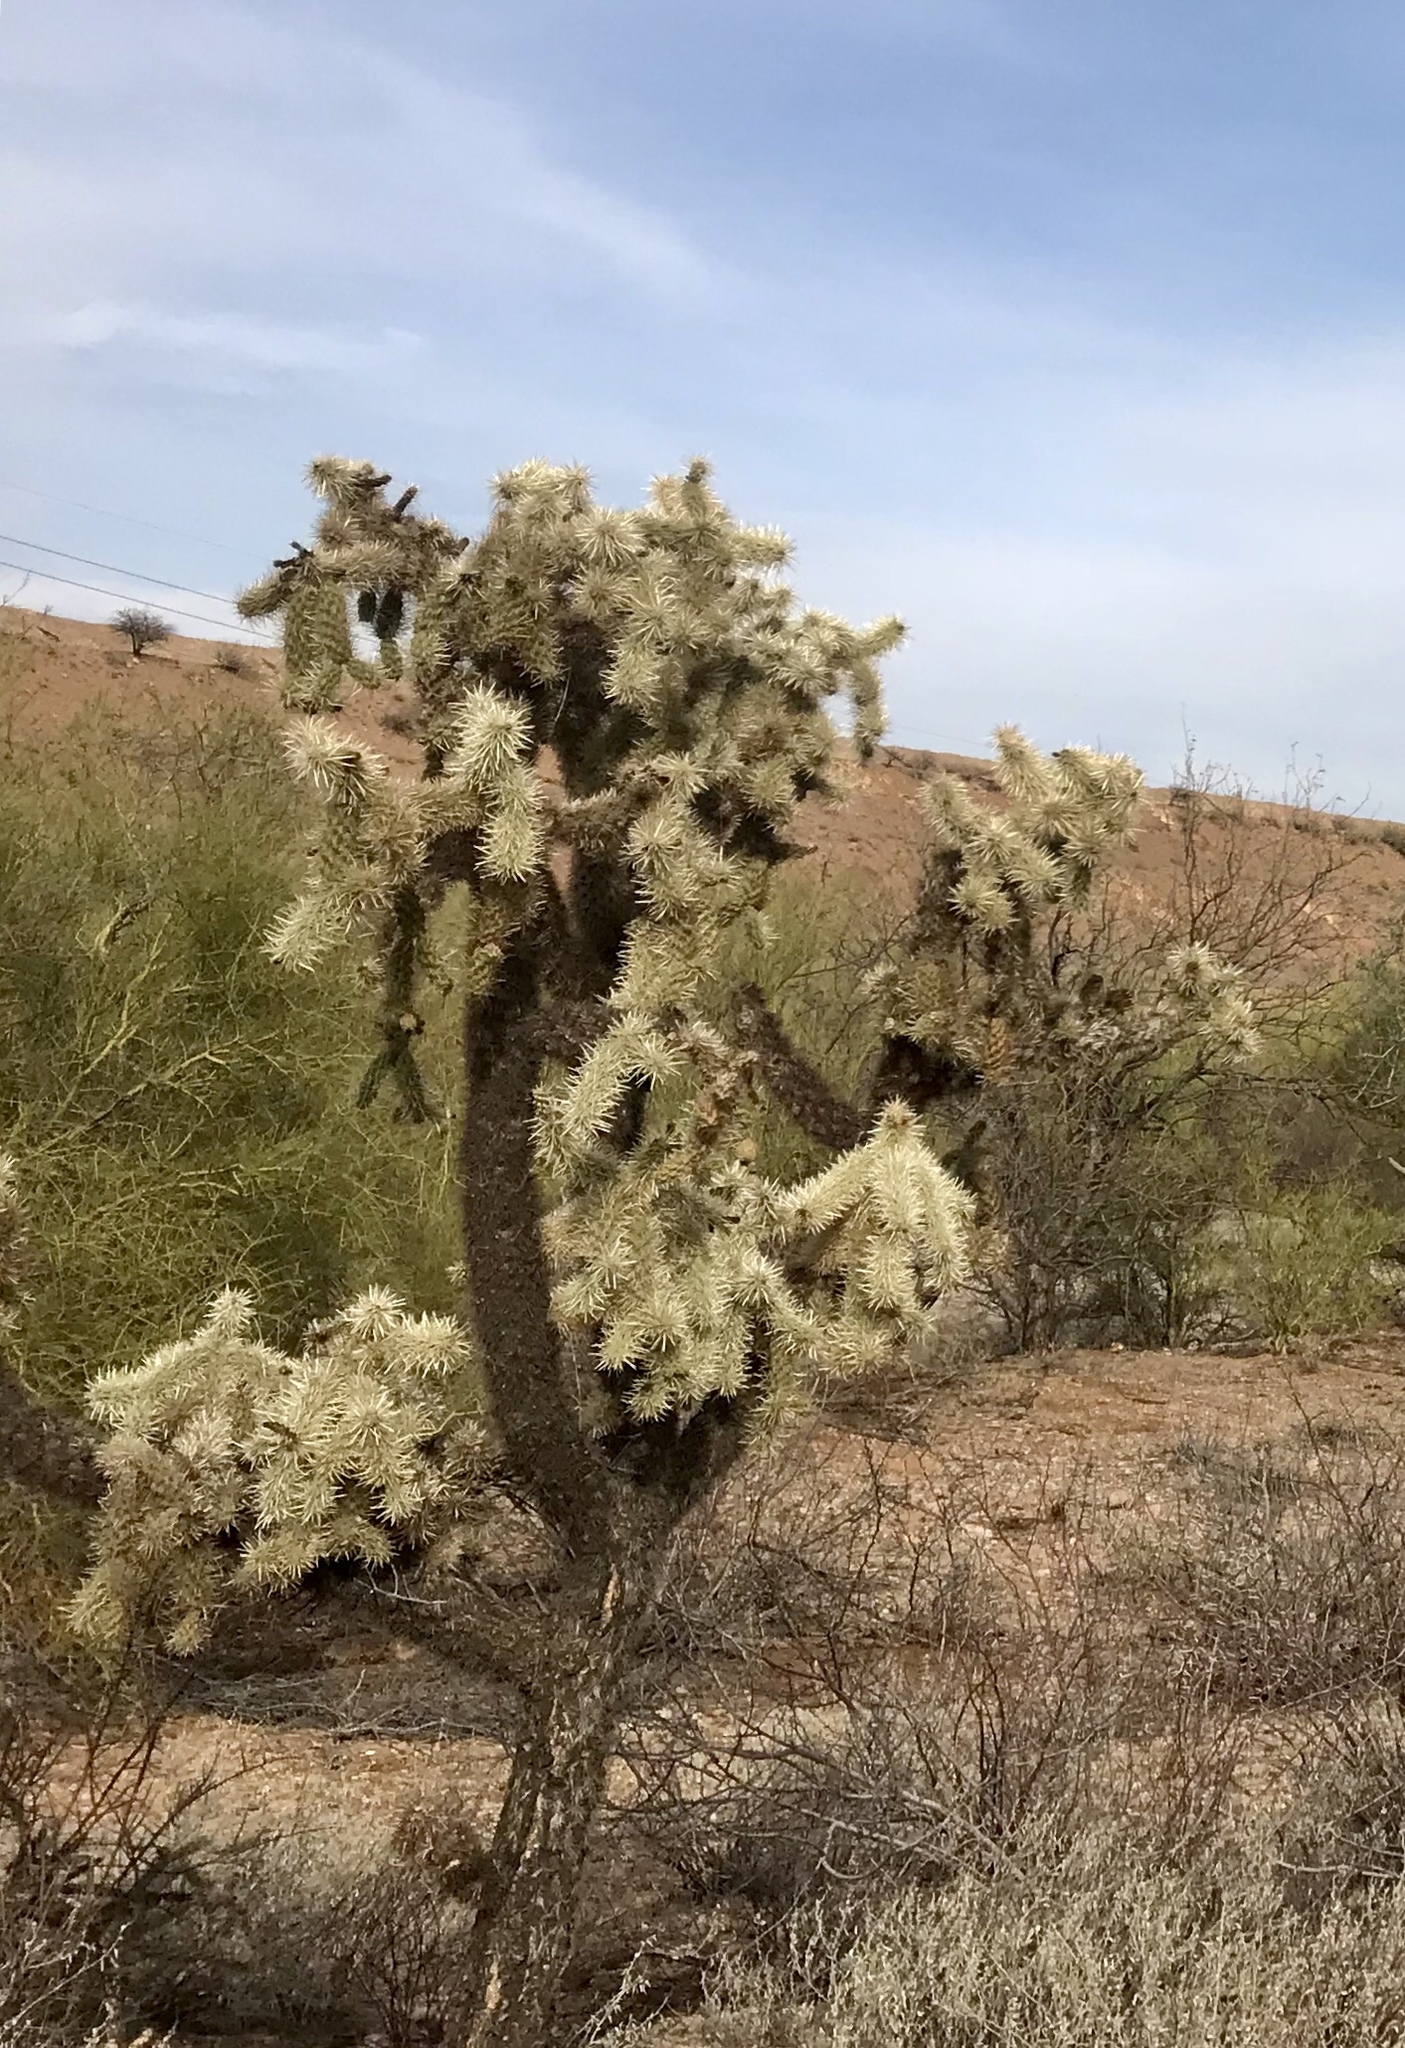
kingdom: Plantae
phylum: Tracheophyta
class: Magnoliopsida
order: Caryophyllales
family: Cactaceae
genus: Cylindropuntia
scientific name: Cylindropuntia fulgida
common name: Jumping cholla
